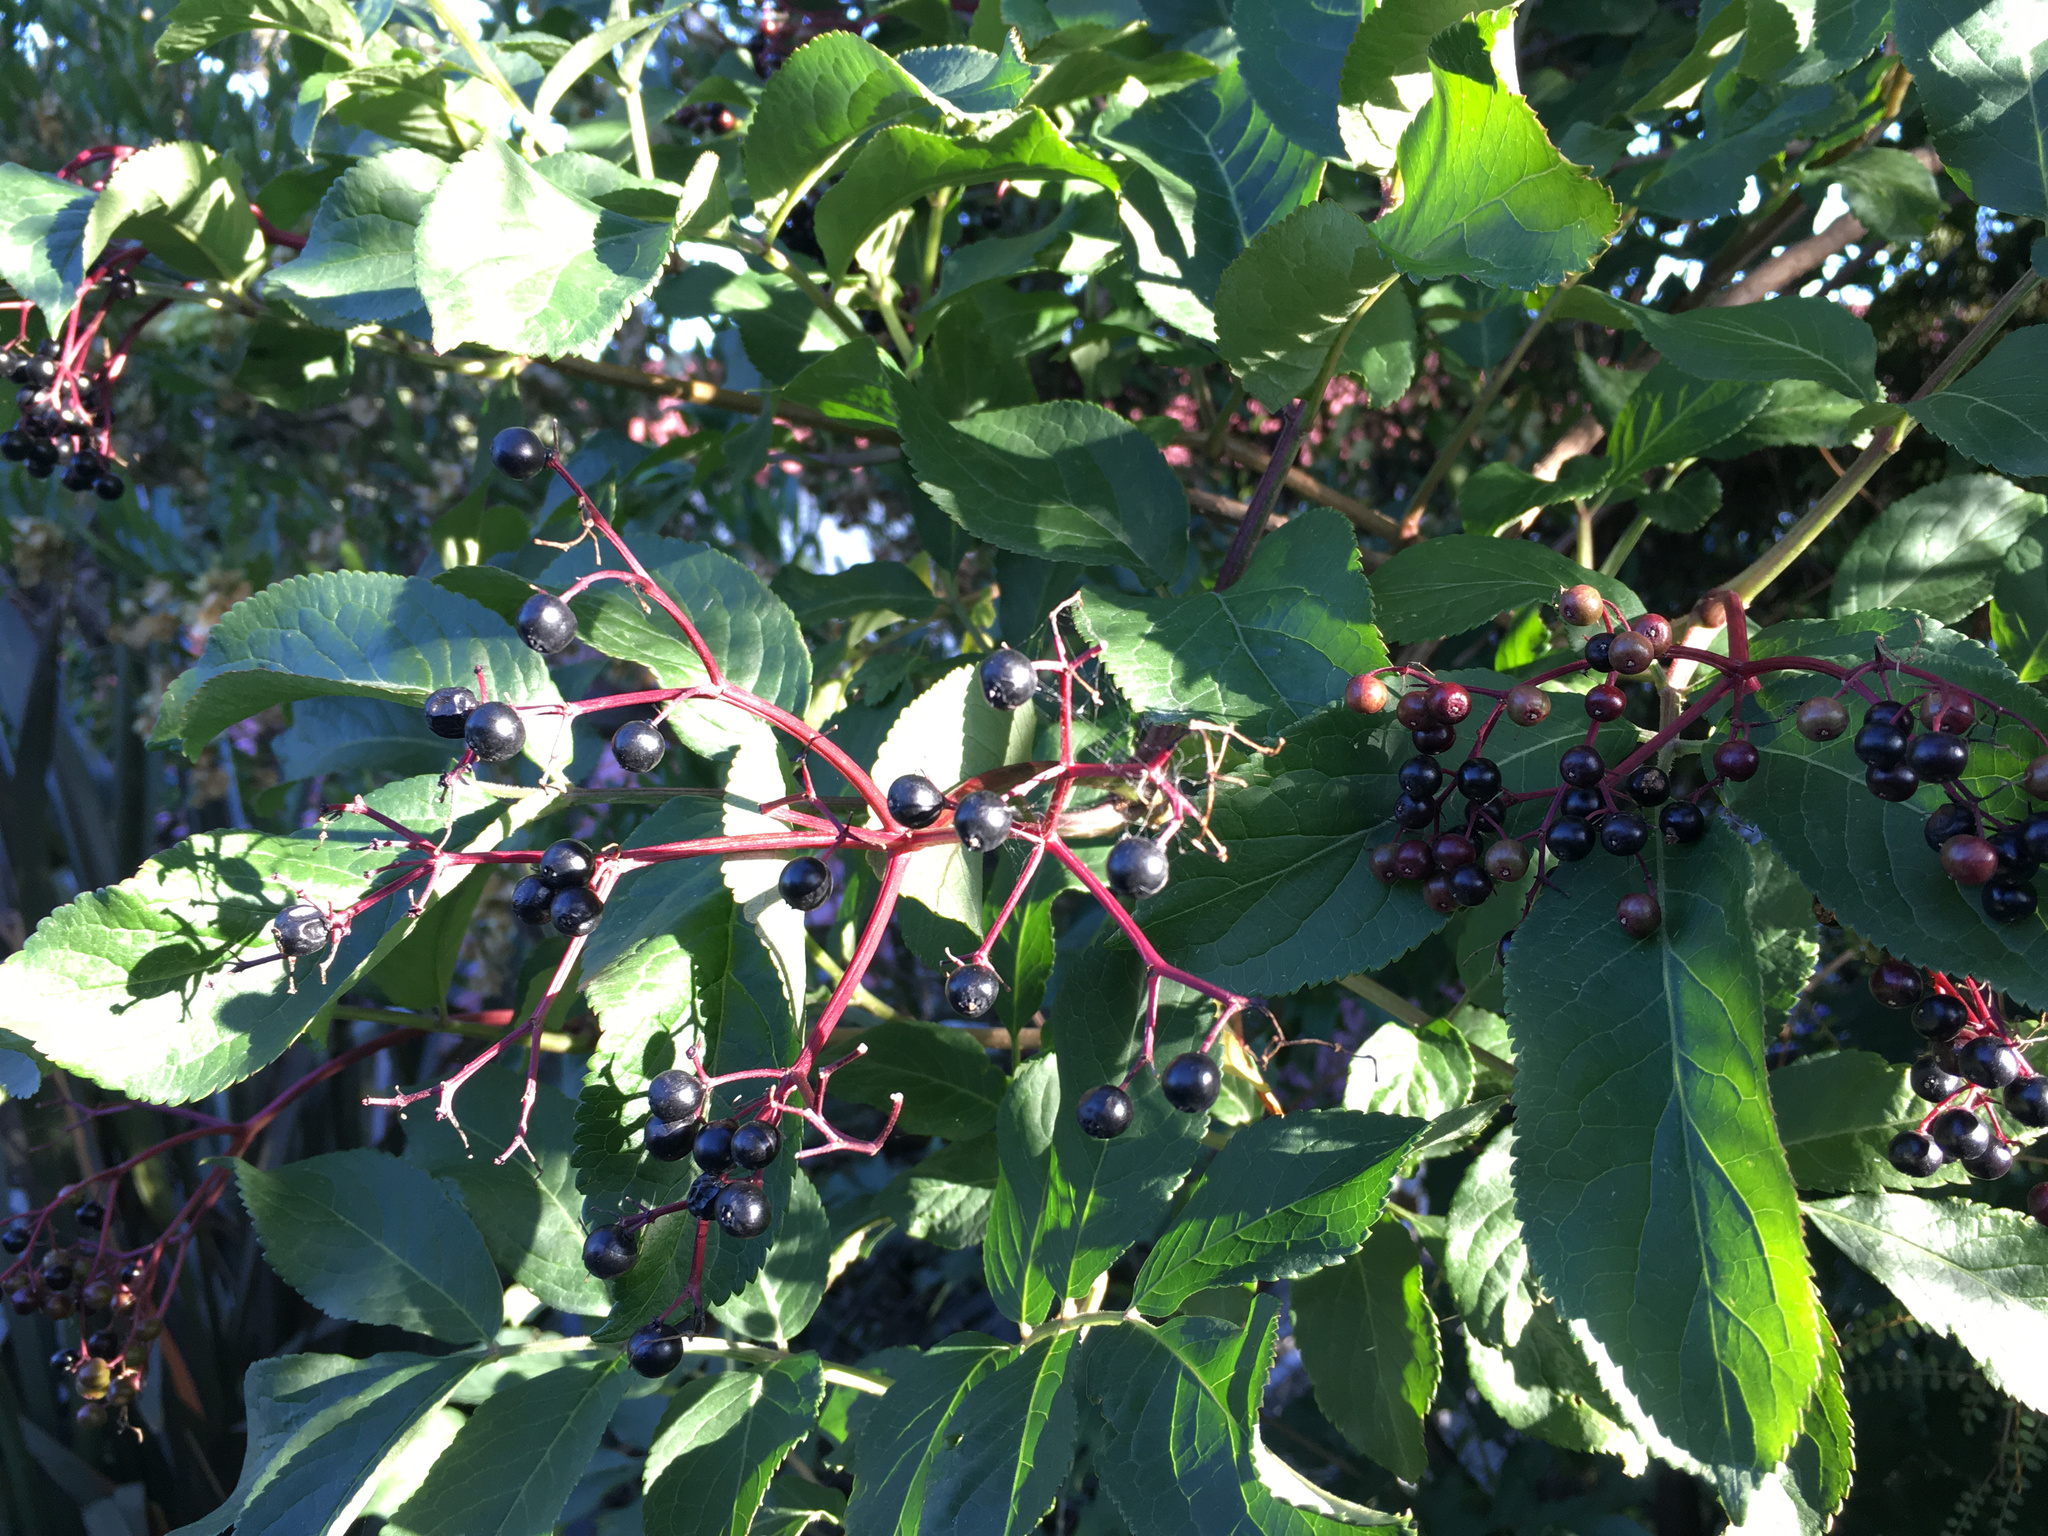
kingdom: Plantae
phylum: Tracheophyta
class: Magnoliopsida
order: Dipsacales
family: Viburnaceae
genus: Sambucus
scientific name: Sambucus nigra
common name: Elder
